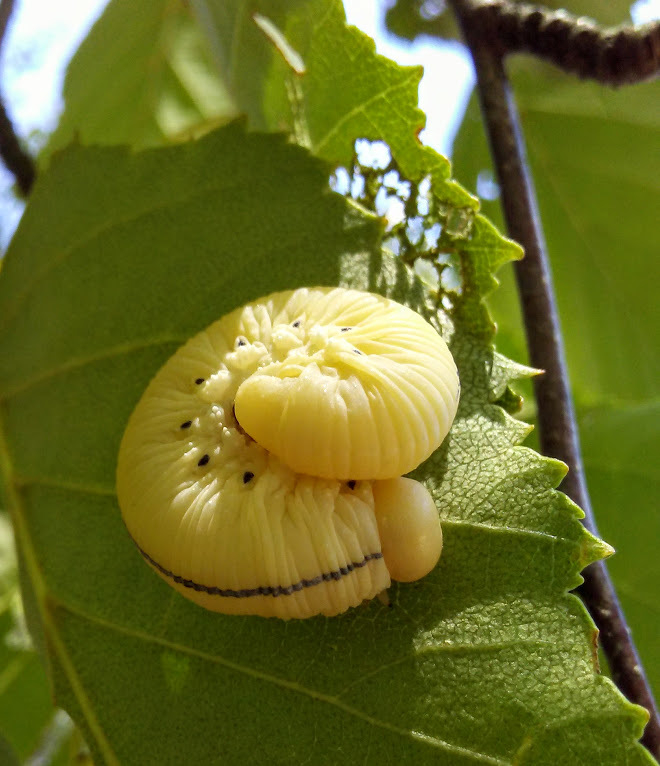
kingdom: Animalia
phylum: Arthropoda
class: Insecta
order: Hymenoptera
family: Cimbicidae
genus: Cimbex
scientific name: Cimbex americana
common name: Elm sawfly
